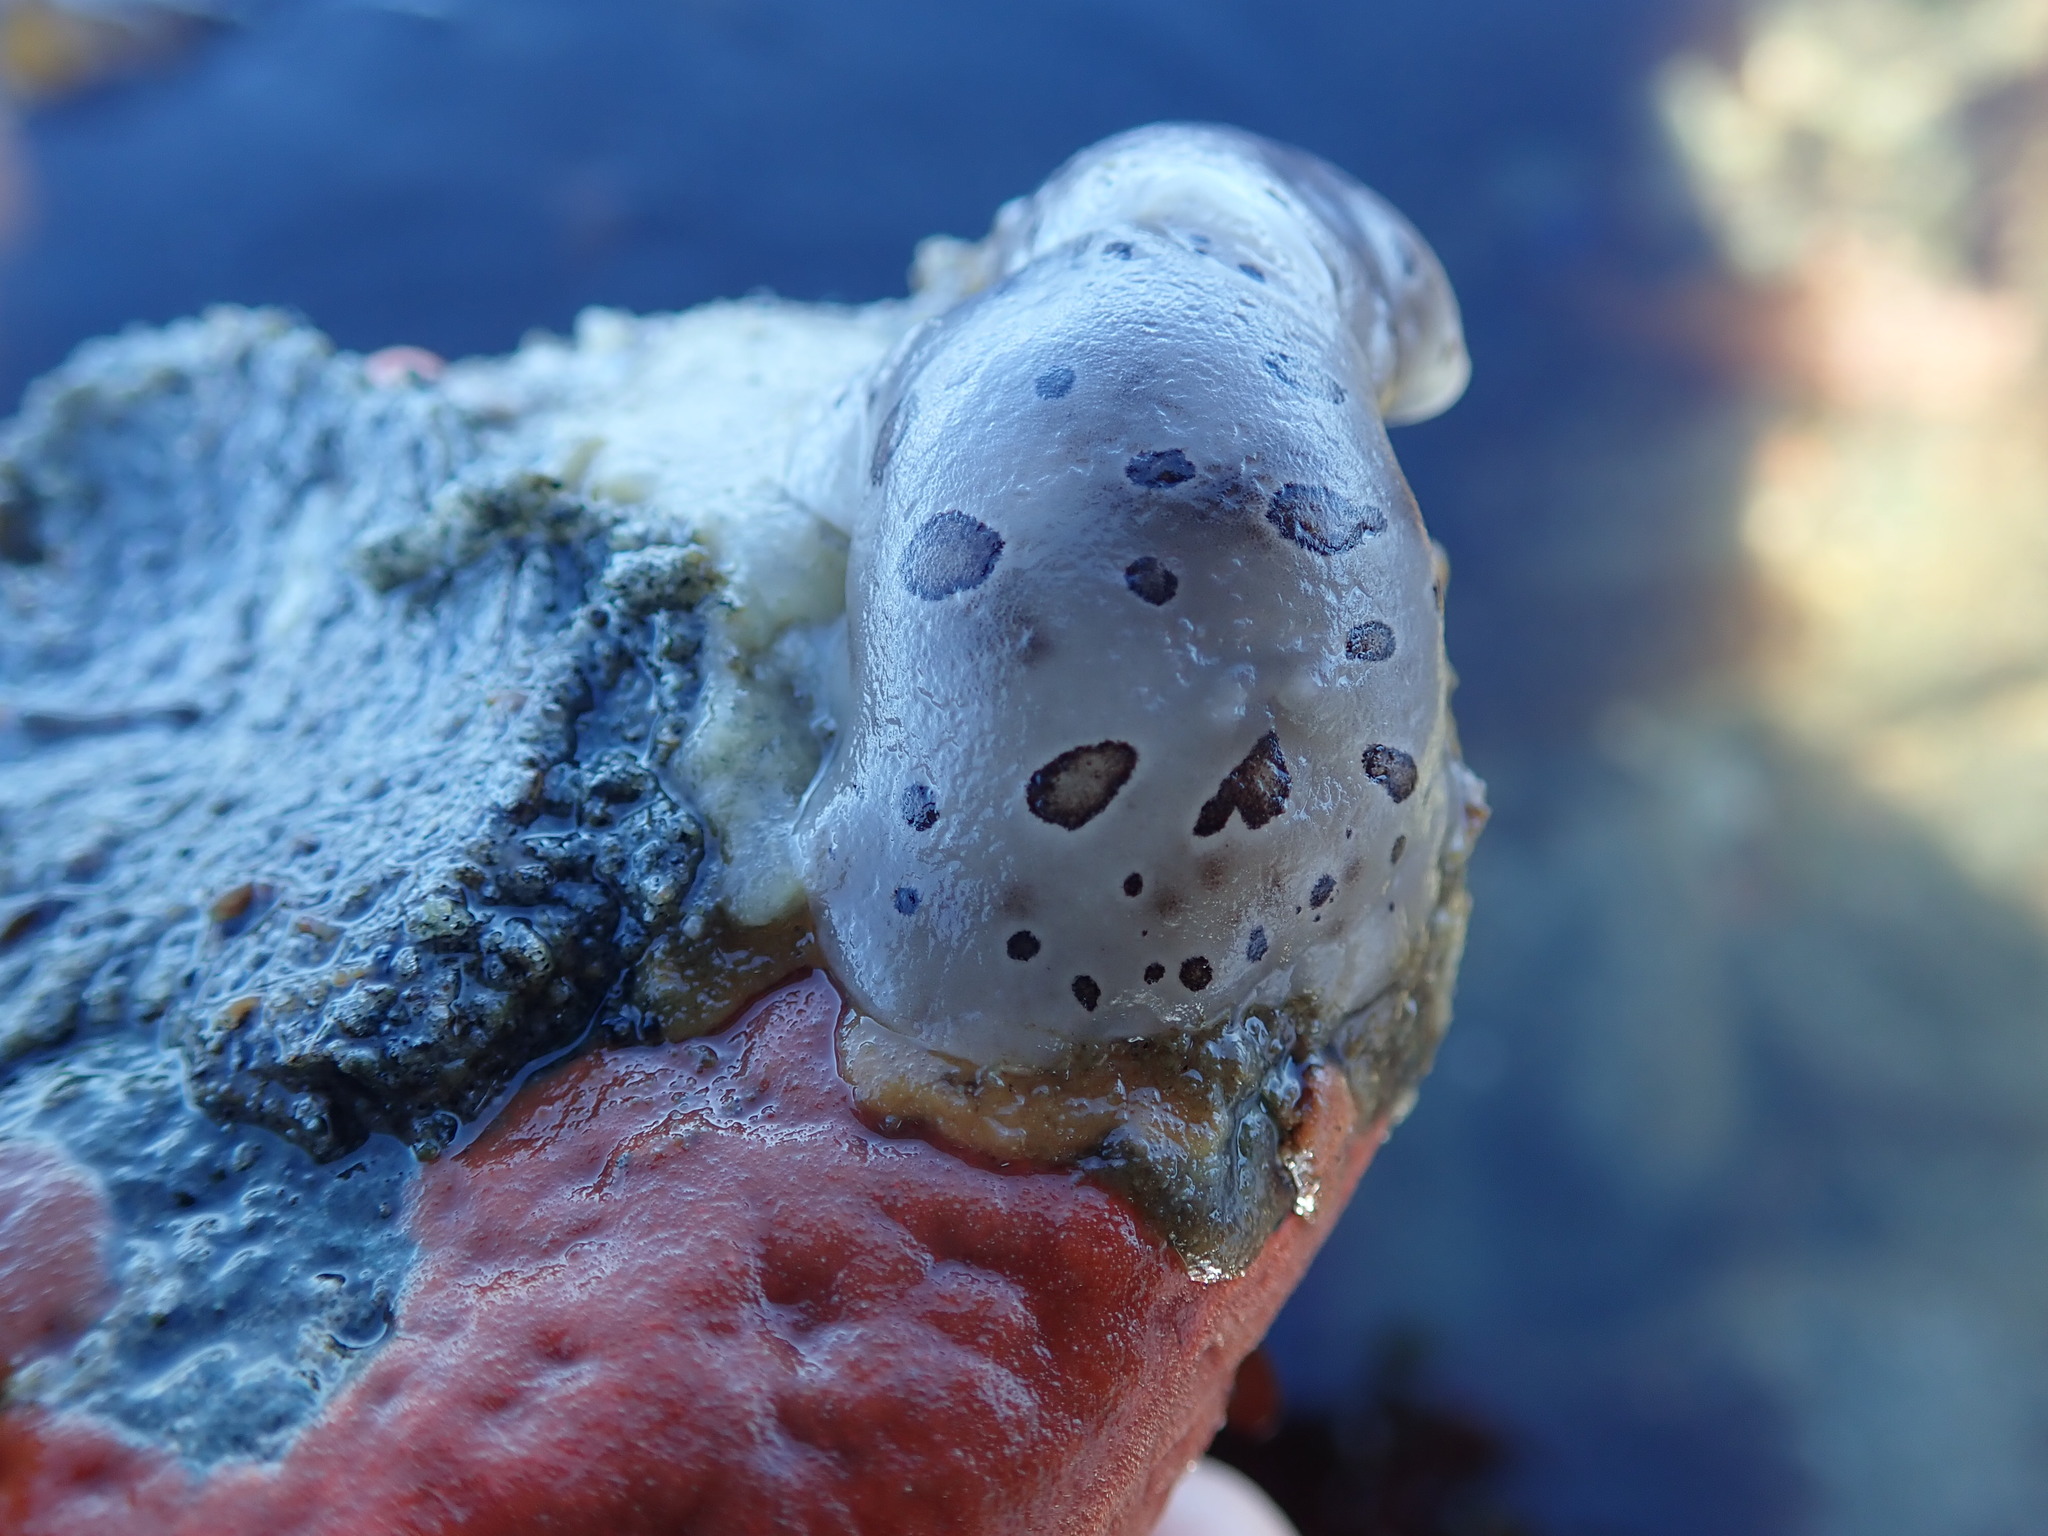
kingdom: Animalia
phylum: Mollusca
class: Gastropoda
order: Nudibranchia
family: Discodorididae
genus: Diaulula
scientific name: Diaulula odonoghuei
